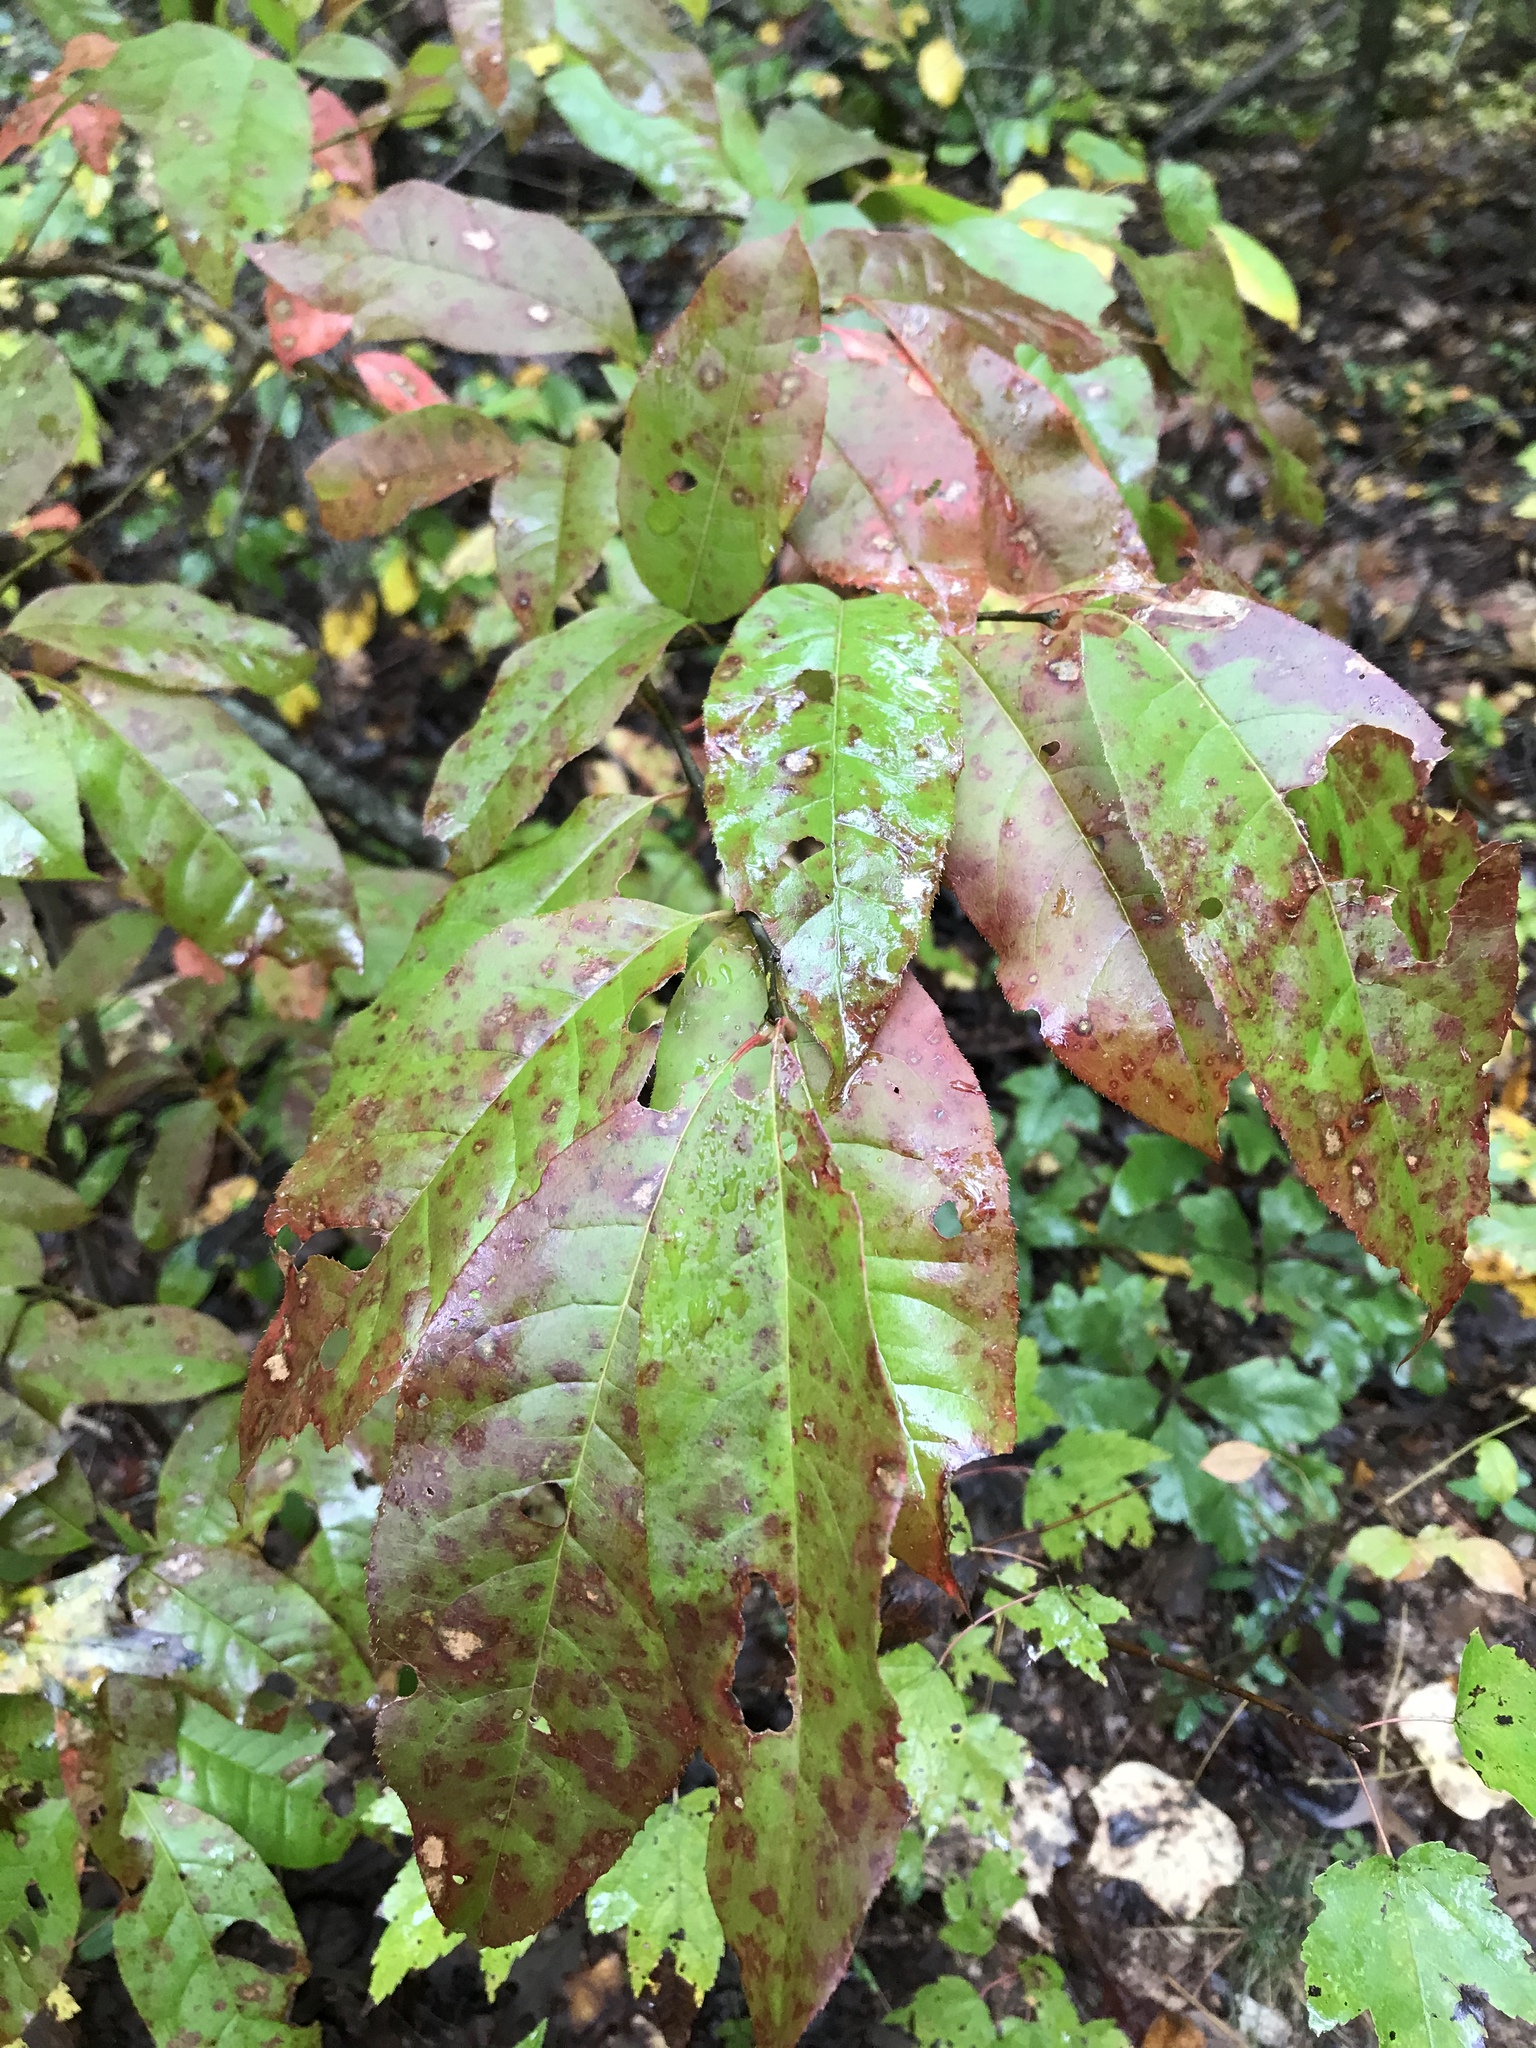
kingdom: Plantae
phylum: Tracheophyta
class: Magnoliopsida
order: Ericales
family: Ericaceae
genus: Oxydendrum
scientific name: Oxydendrum arboreum
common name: Sourwood
